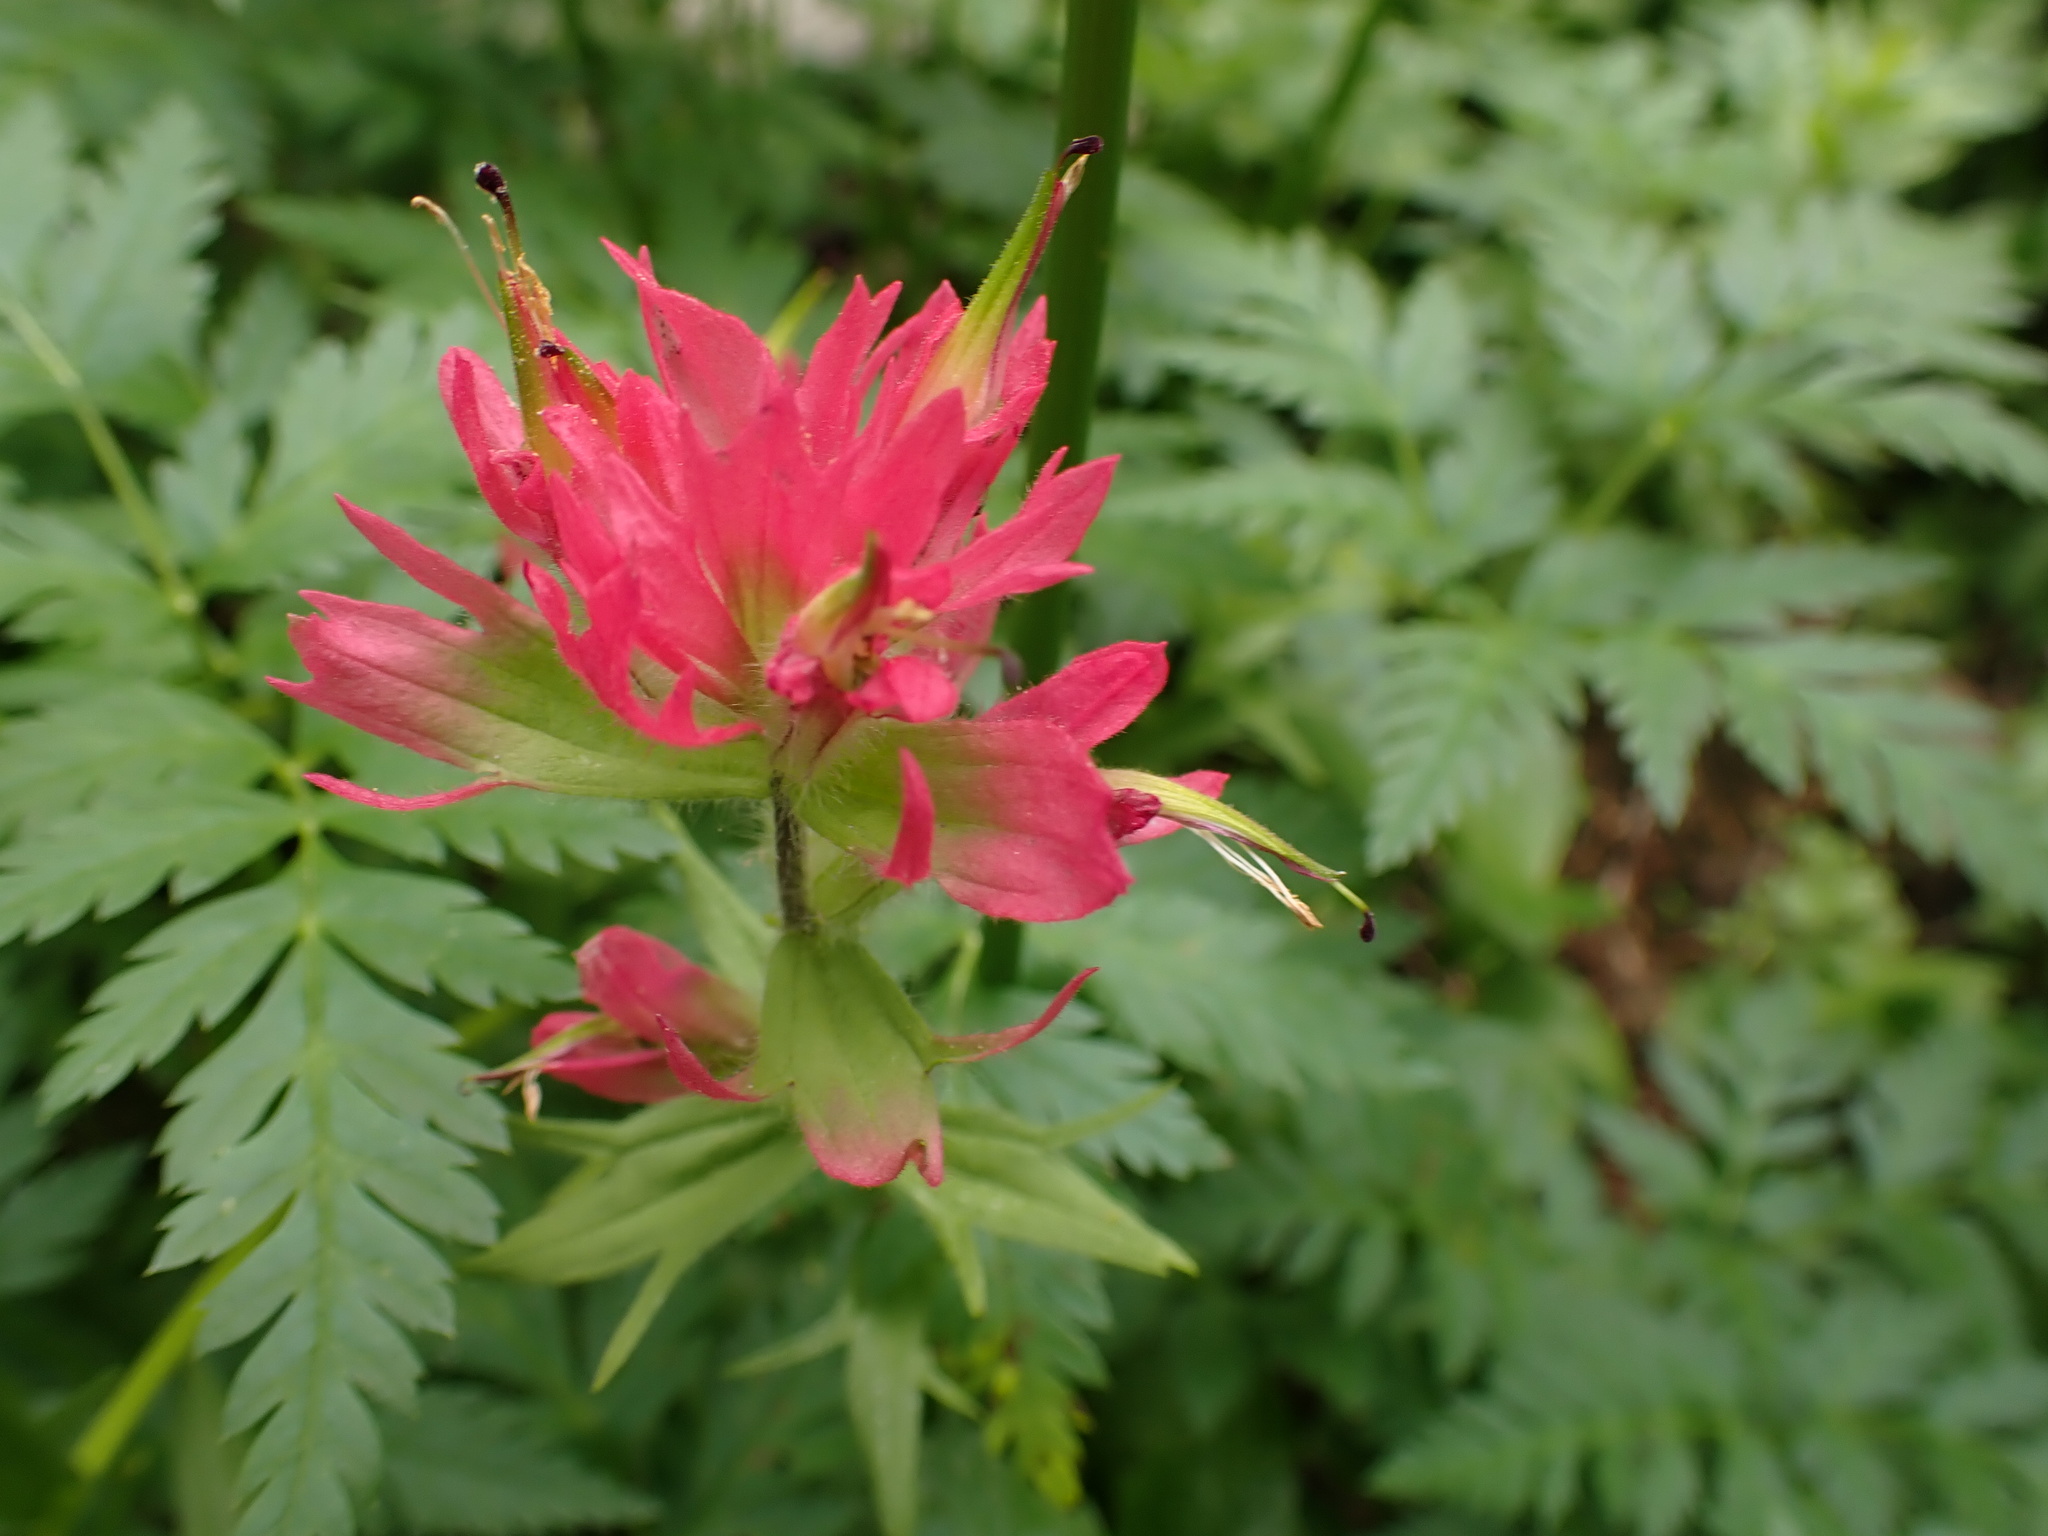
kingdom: Plantae
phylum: Tracheophyta
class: Magnoliopsida
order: Lamiales
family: Orobanchaceae
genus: Castilleja
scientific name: Castilleja parviflora
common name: Mountain paintbrush
